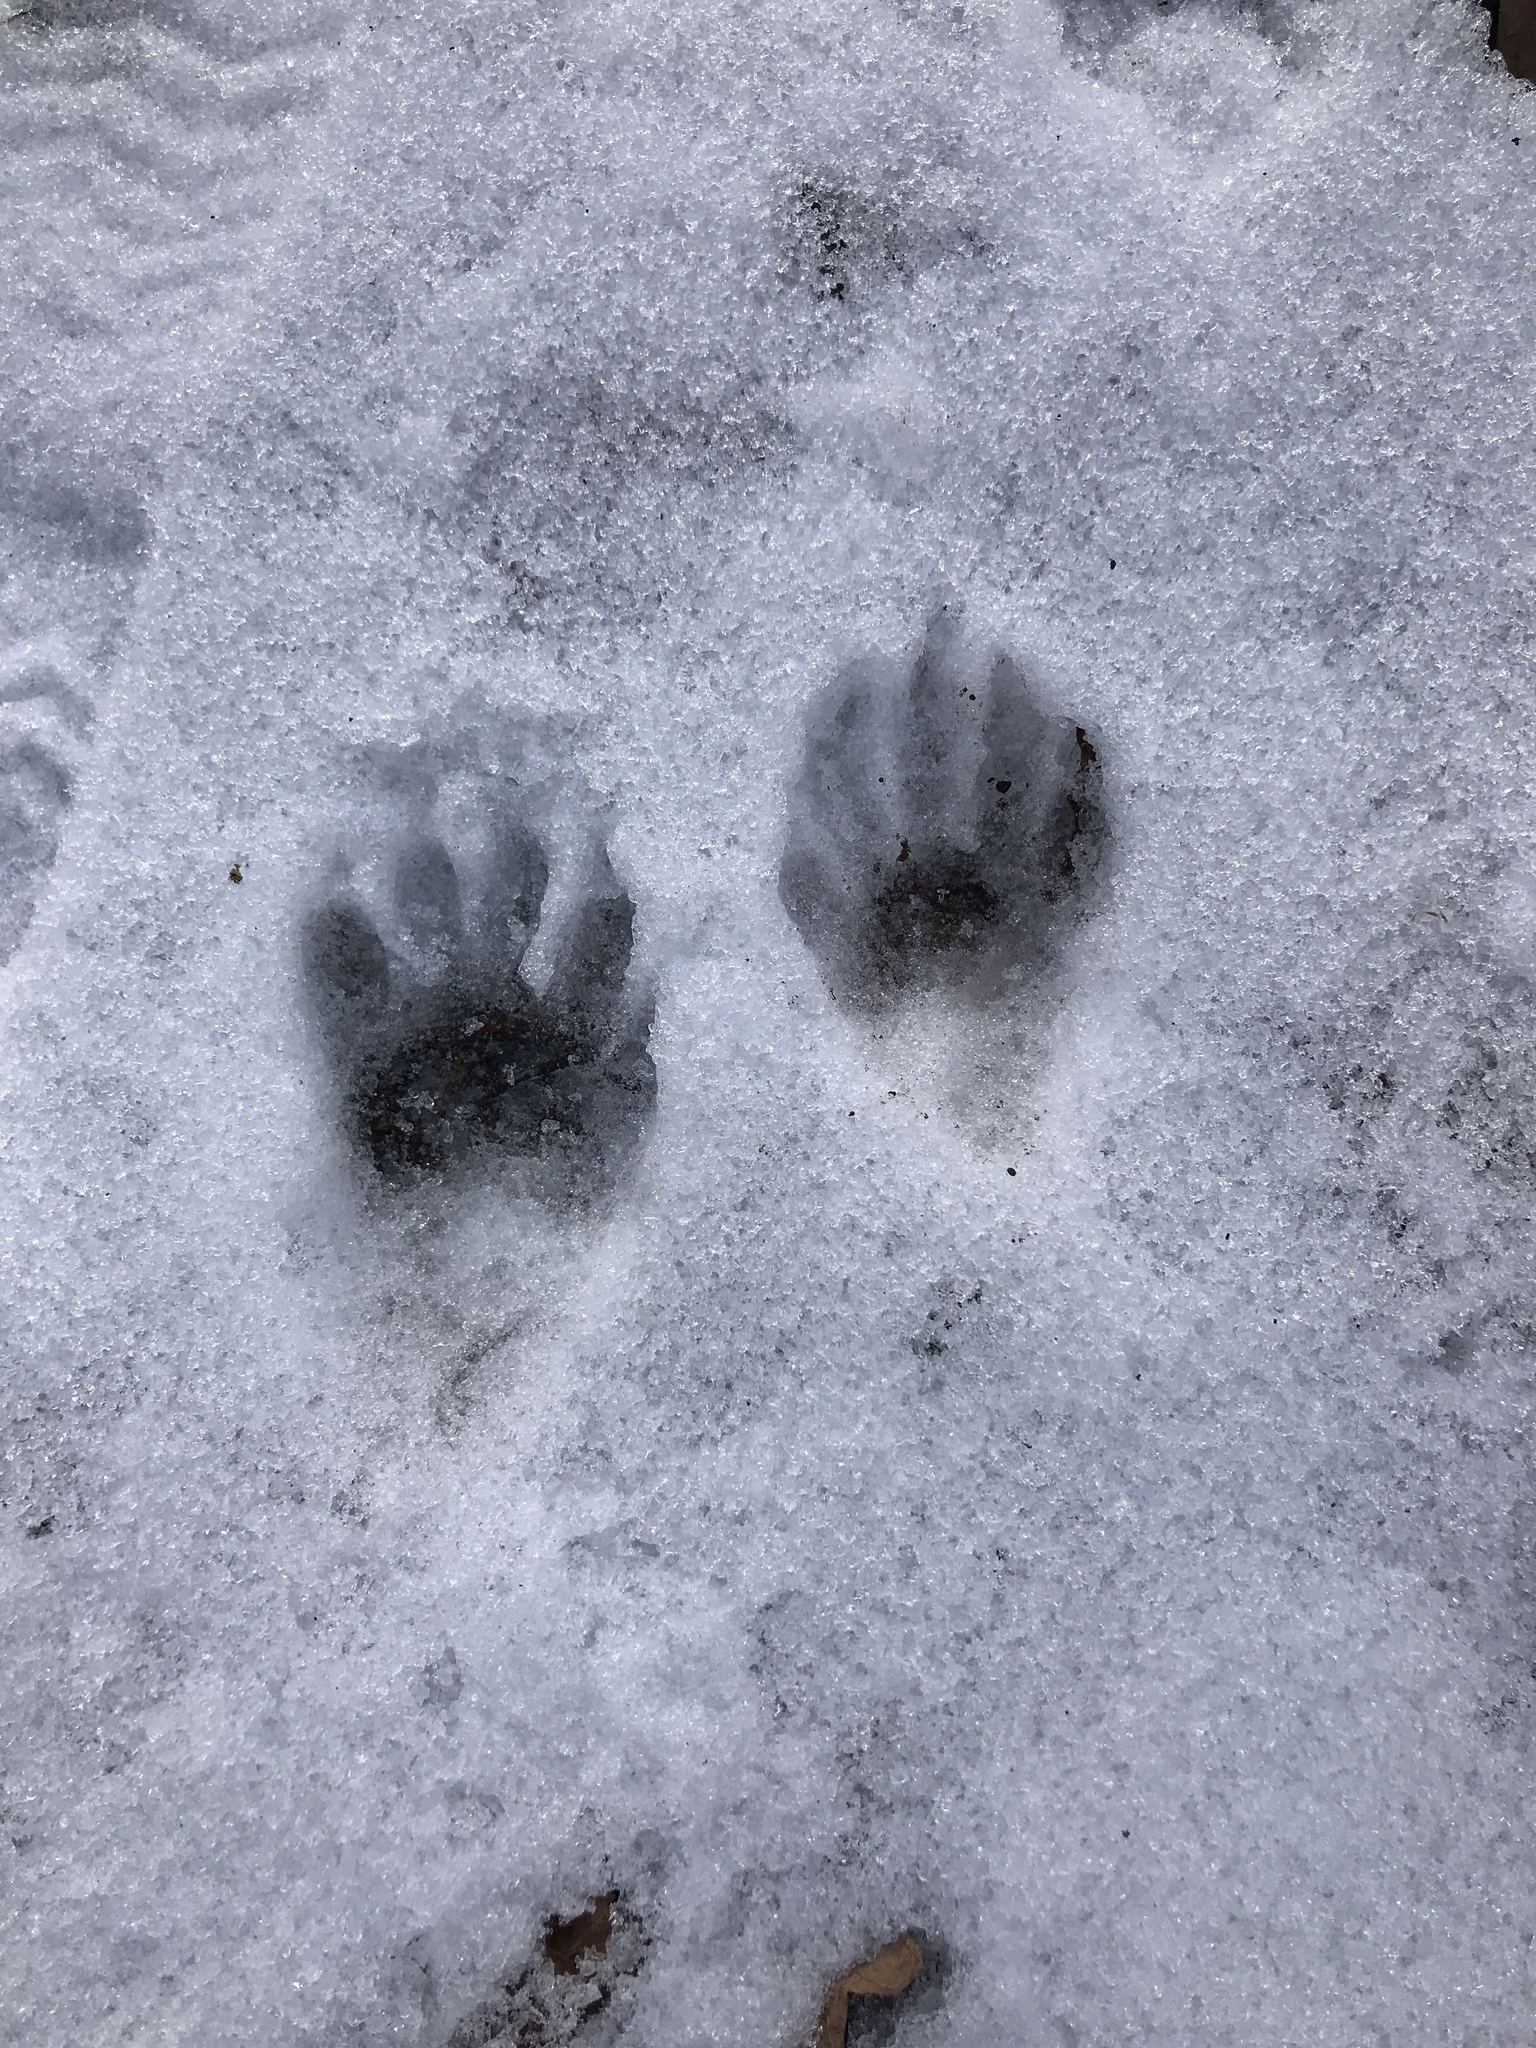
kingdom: Animalia
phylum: Chordata
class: Mammalia
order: Carnivora
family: Procyonidae
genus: Procyon
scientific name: Procyon lotor
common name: Raccoon
